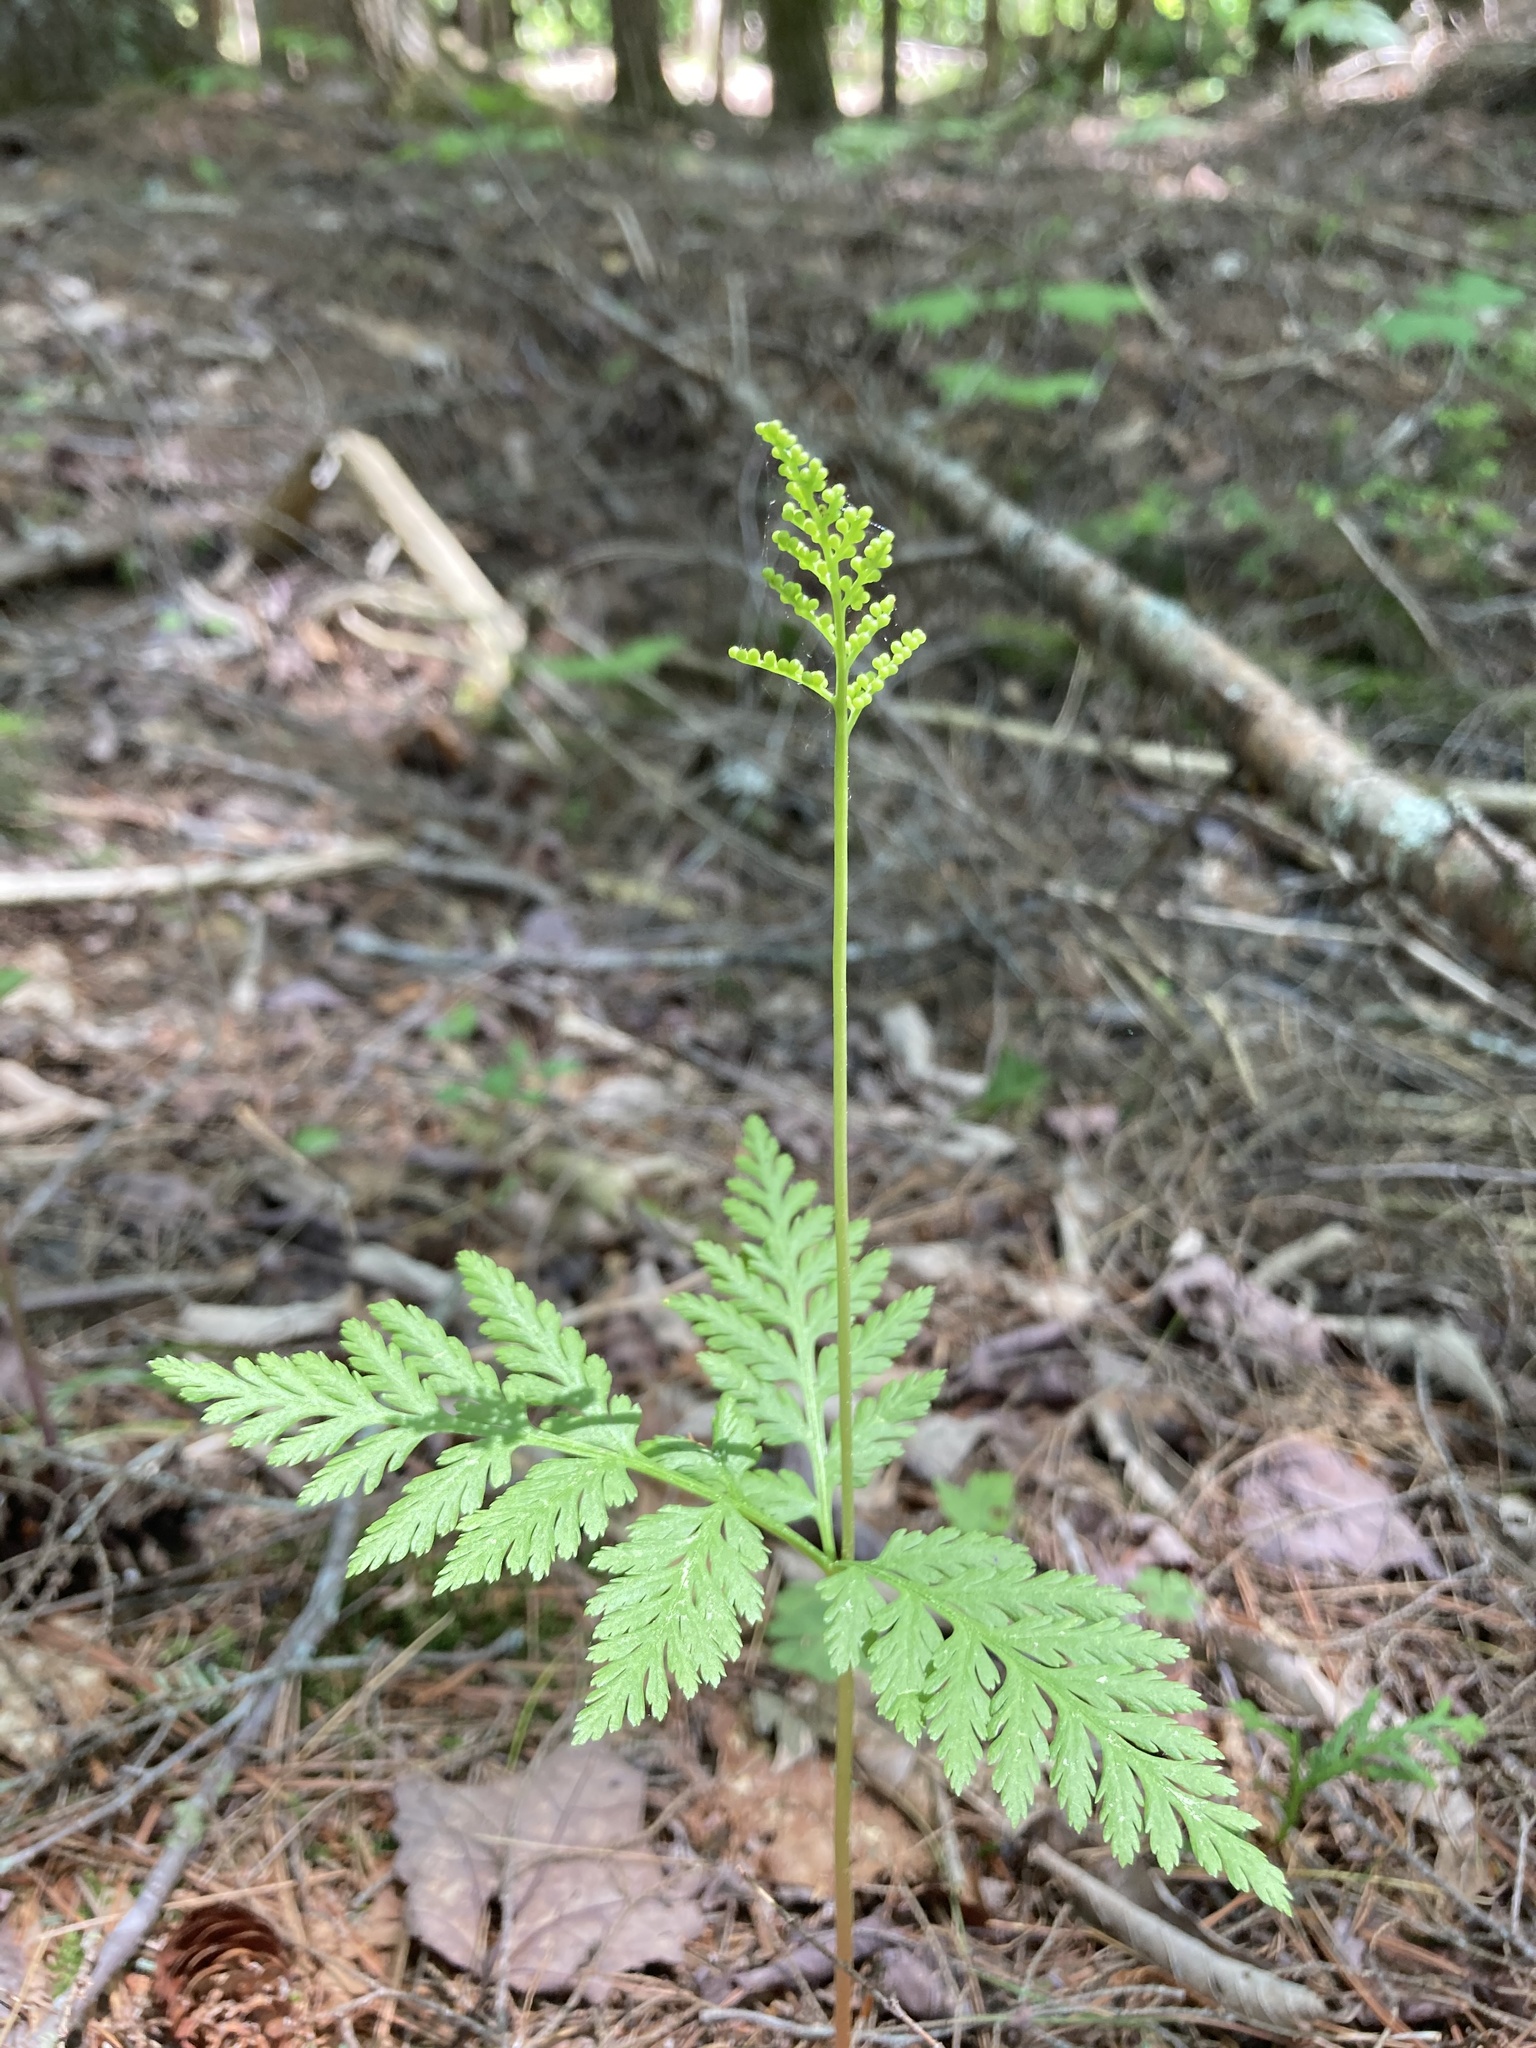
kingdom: Plantae
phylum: Tracheophyta
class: Polypodiopsida
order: Ophioglossales
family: Ophioglossaceae
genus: Botrypus
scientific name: Botrypus virginianus
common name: Common grapefern
